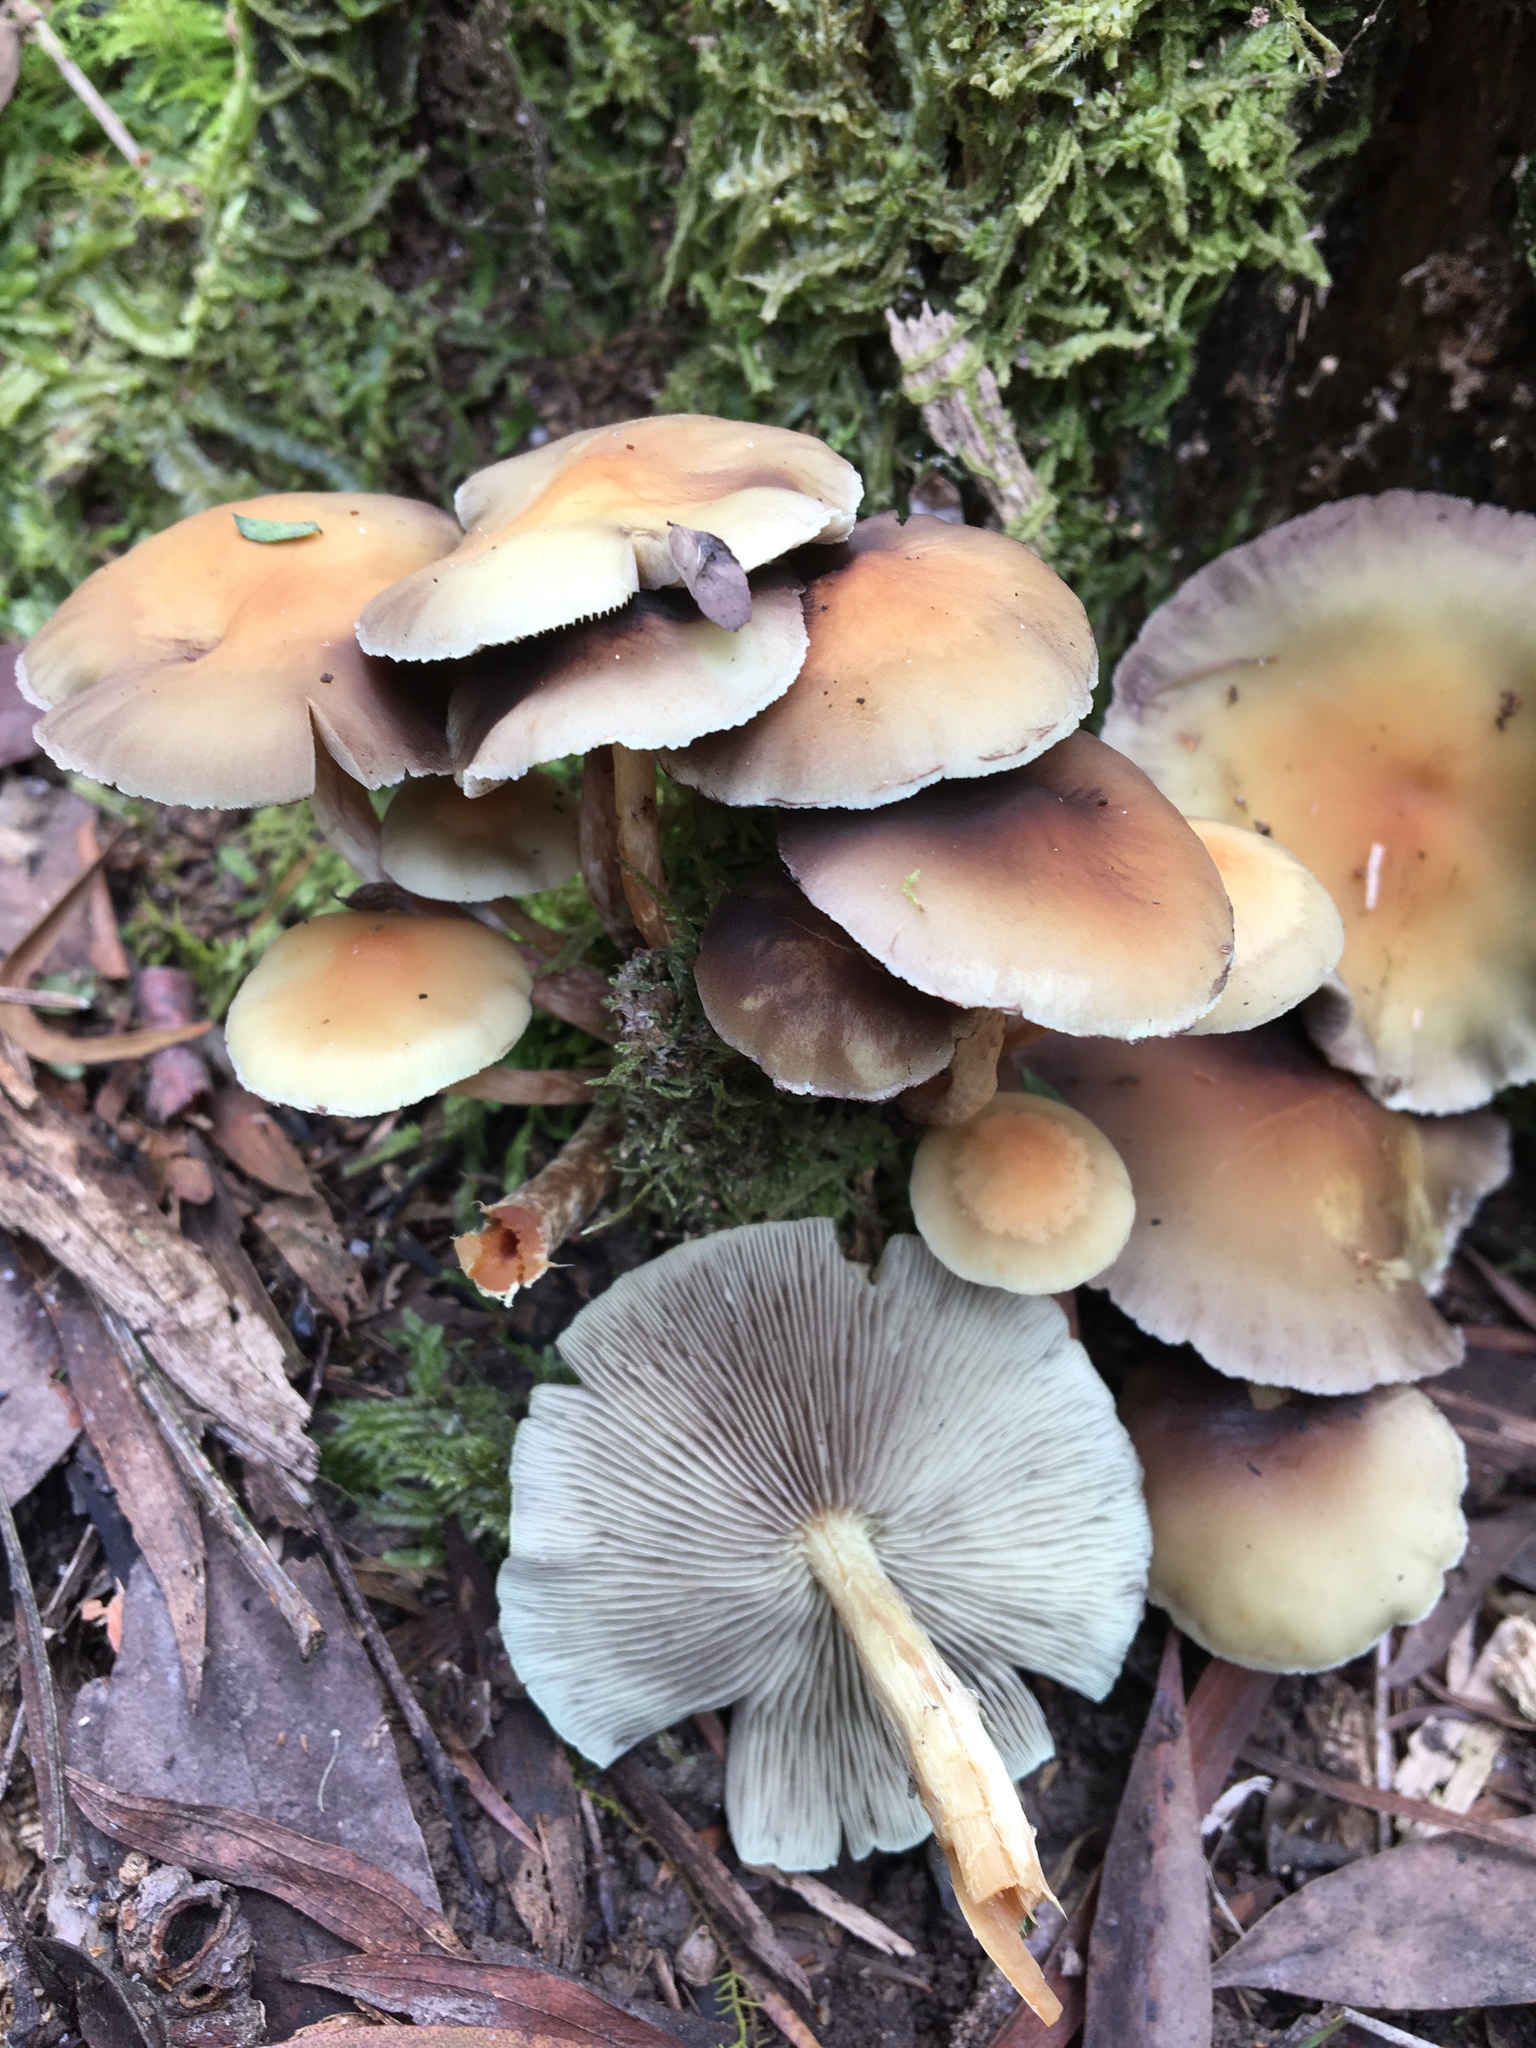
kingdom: Fungi
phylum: Basidiomycota
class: Agaricomycetes
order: Agaricales
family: Strophariaceae
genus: Hypholoma
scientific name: Hypholoma fasciculare
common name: Sulphur tuft
